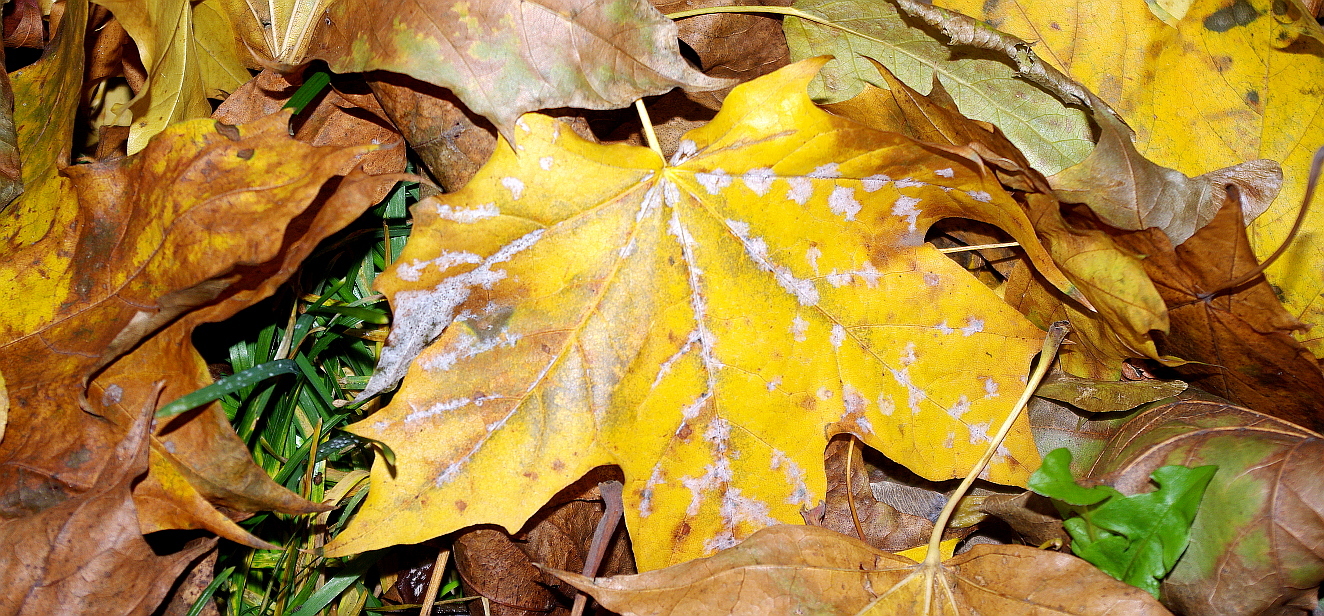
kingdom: Fungi
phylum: Ascomycota
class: Leotiomycetes
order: Helotiales
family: Erysiphaceae
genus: Sawadaea
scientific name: Sawadaea tulasnei
